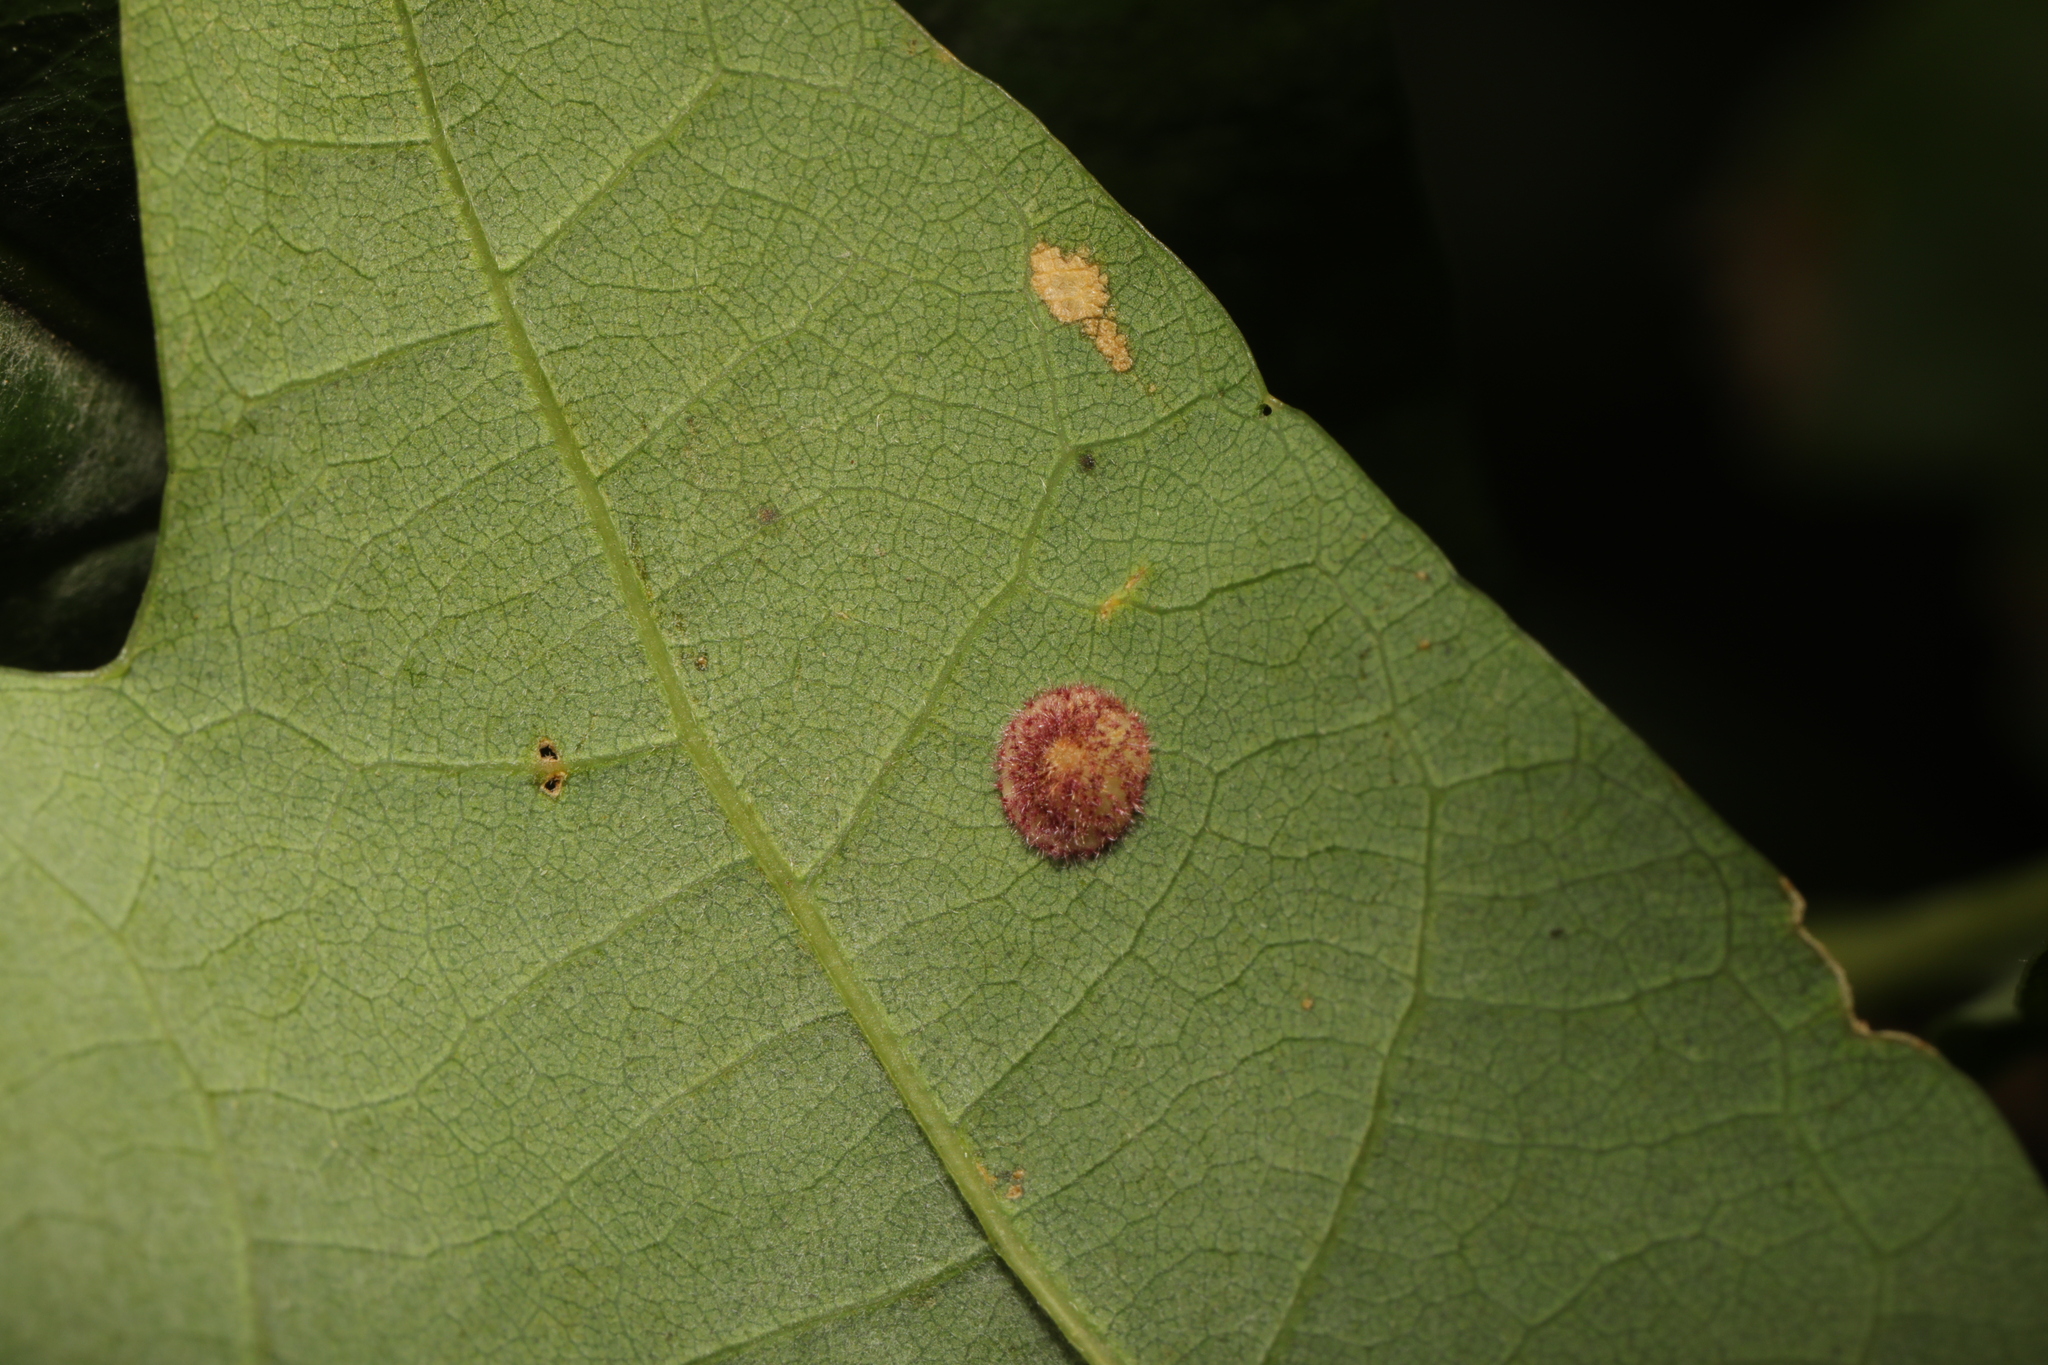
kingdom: Animalia
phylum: Arthropoda
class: Insecta
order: Hymenoptera
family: Cynipidae
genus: Neuroterus
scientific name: Neuroterus quercusbaccarum
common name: Common spangle gall
